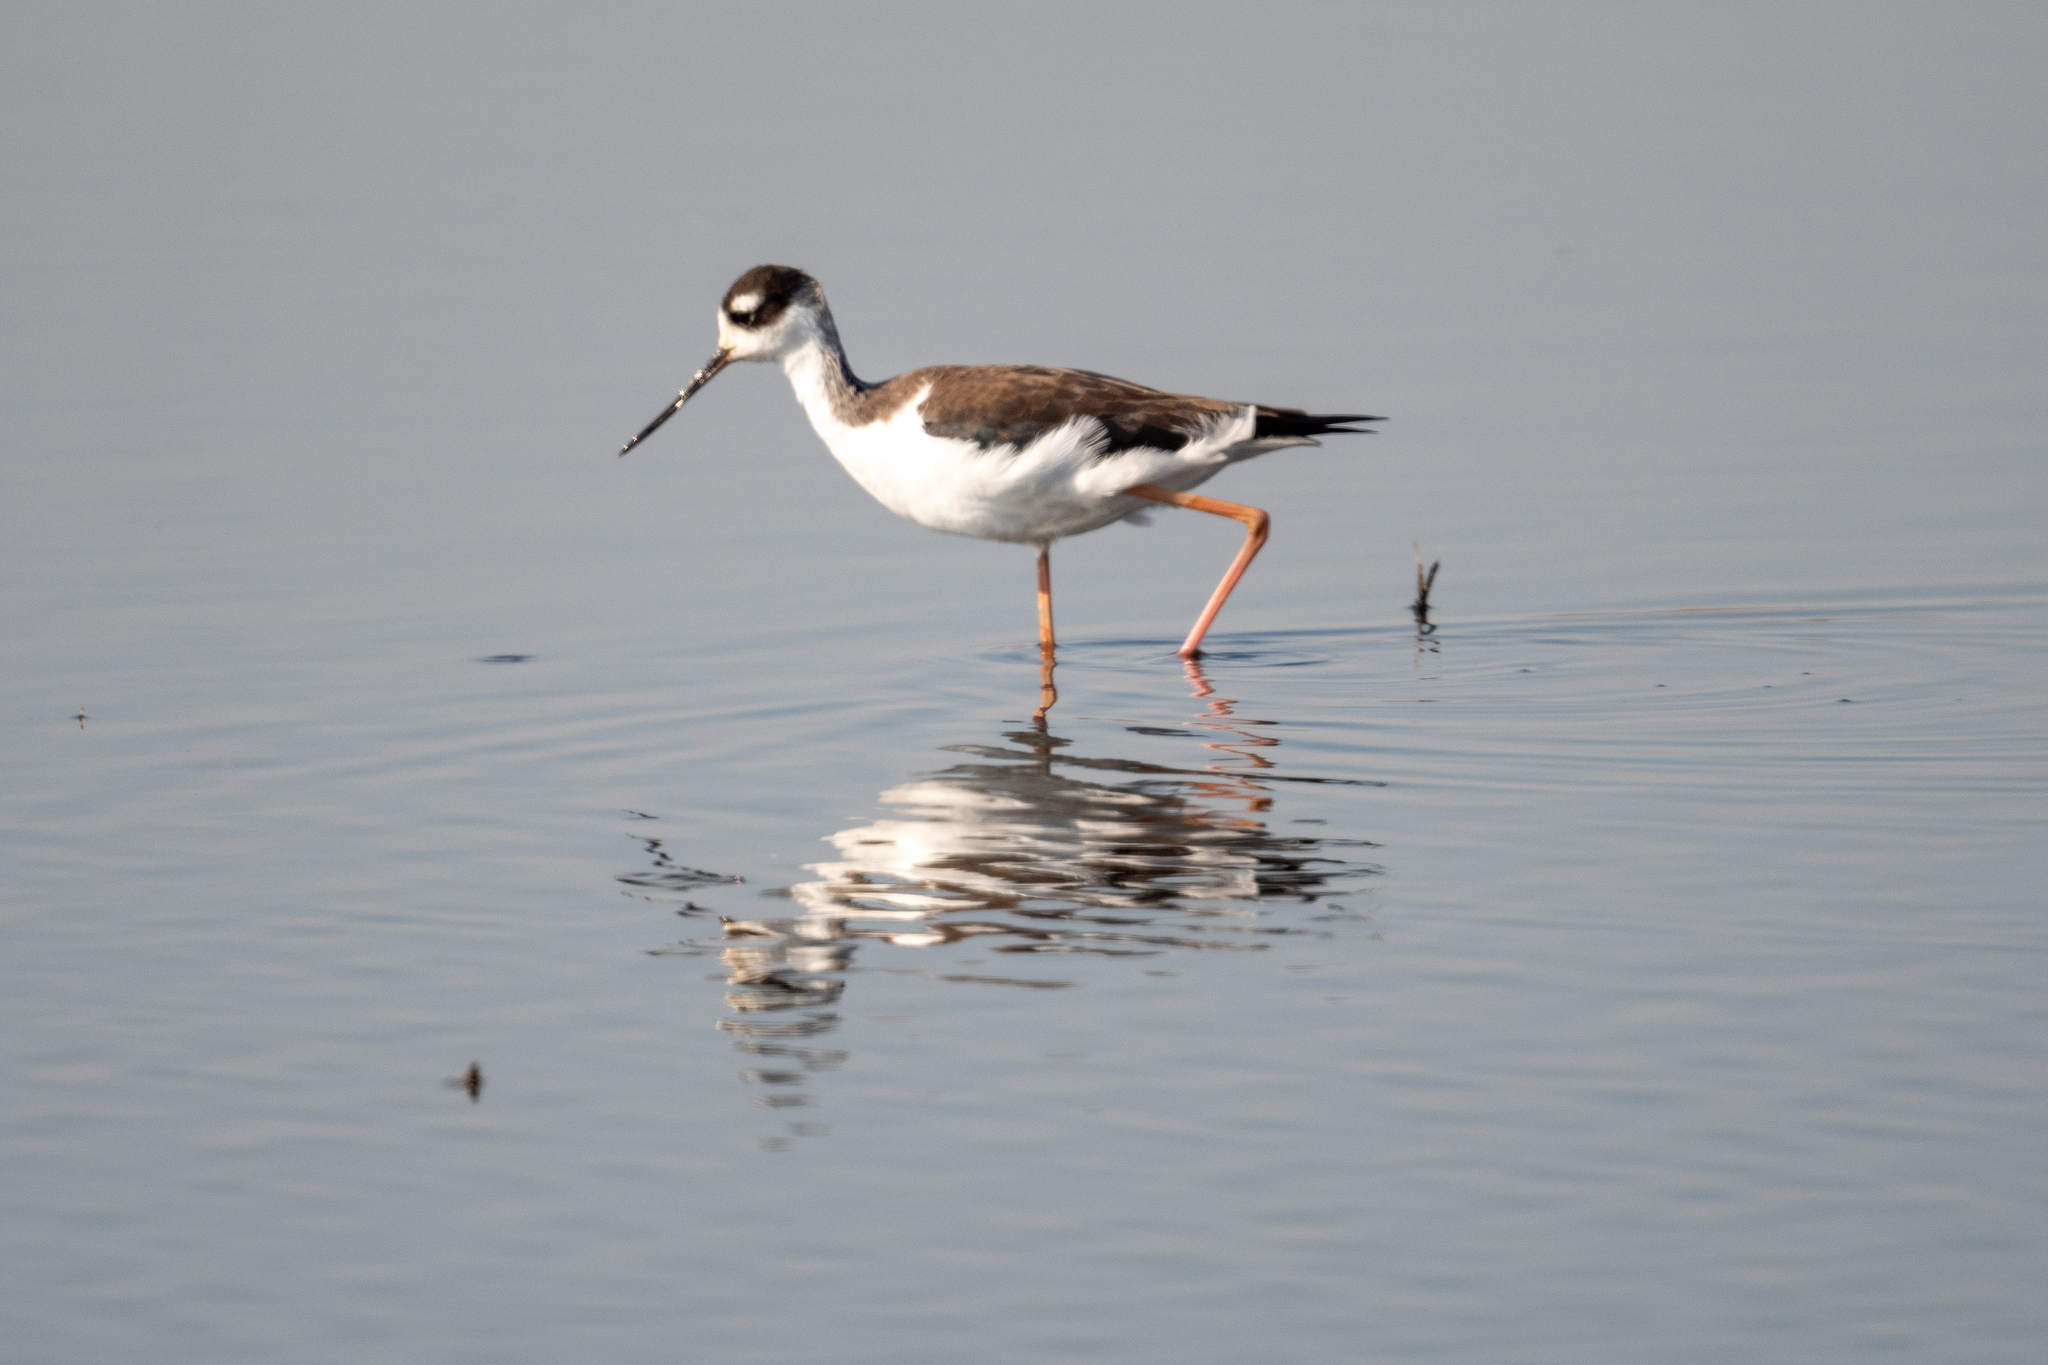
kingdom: Animalia
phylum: Chordata
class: Aves
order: Charadriiformes
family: Recurvirostridae
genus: Himantopus
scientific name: Himantopus mexicanus
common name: Black-necked stilt
